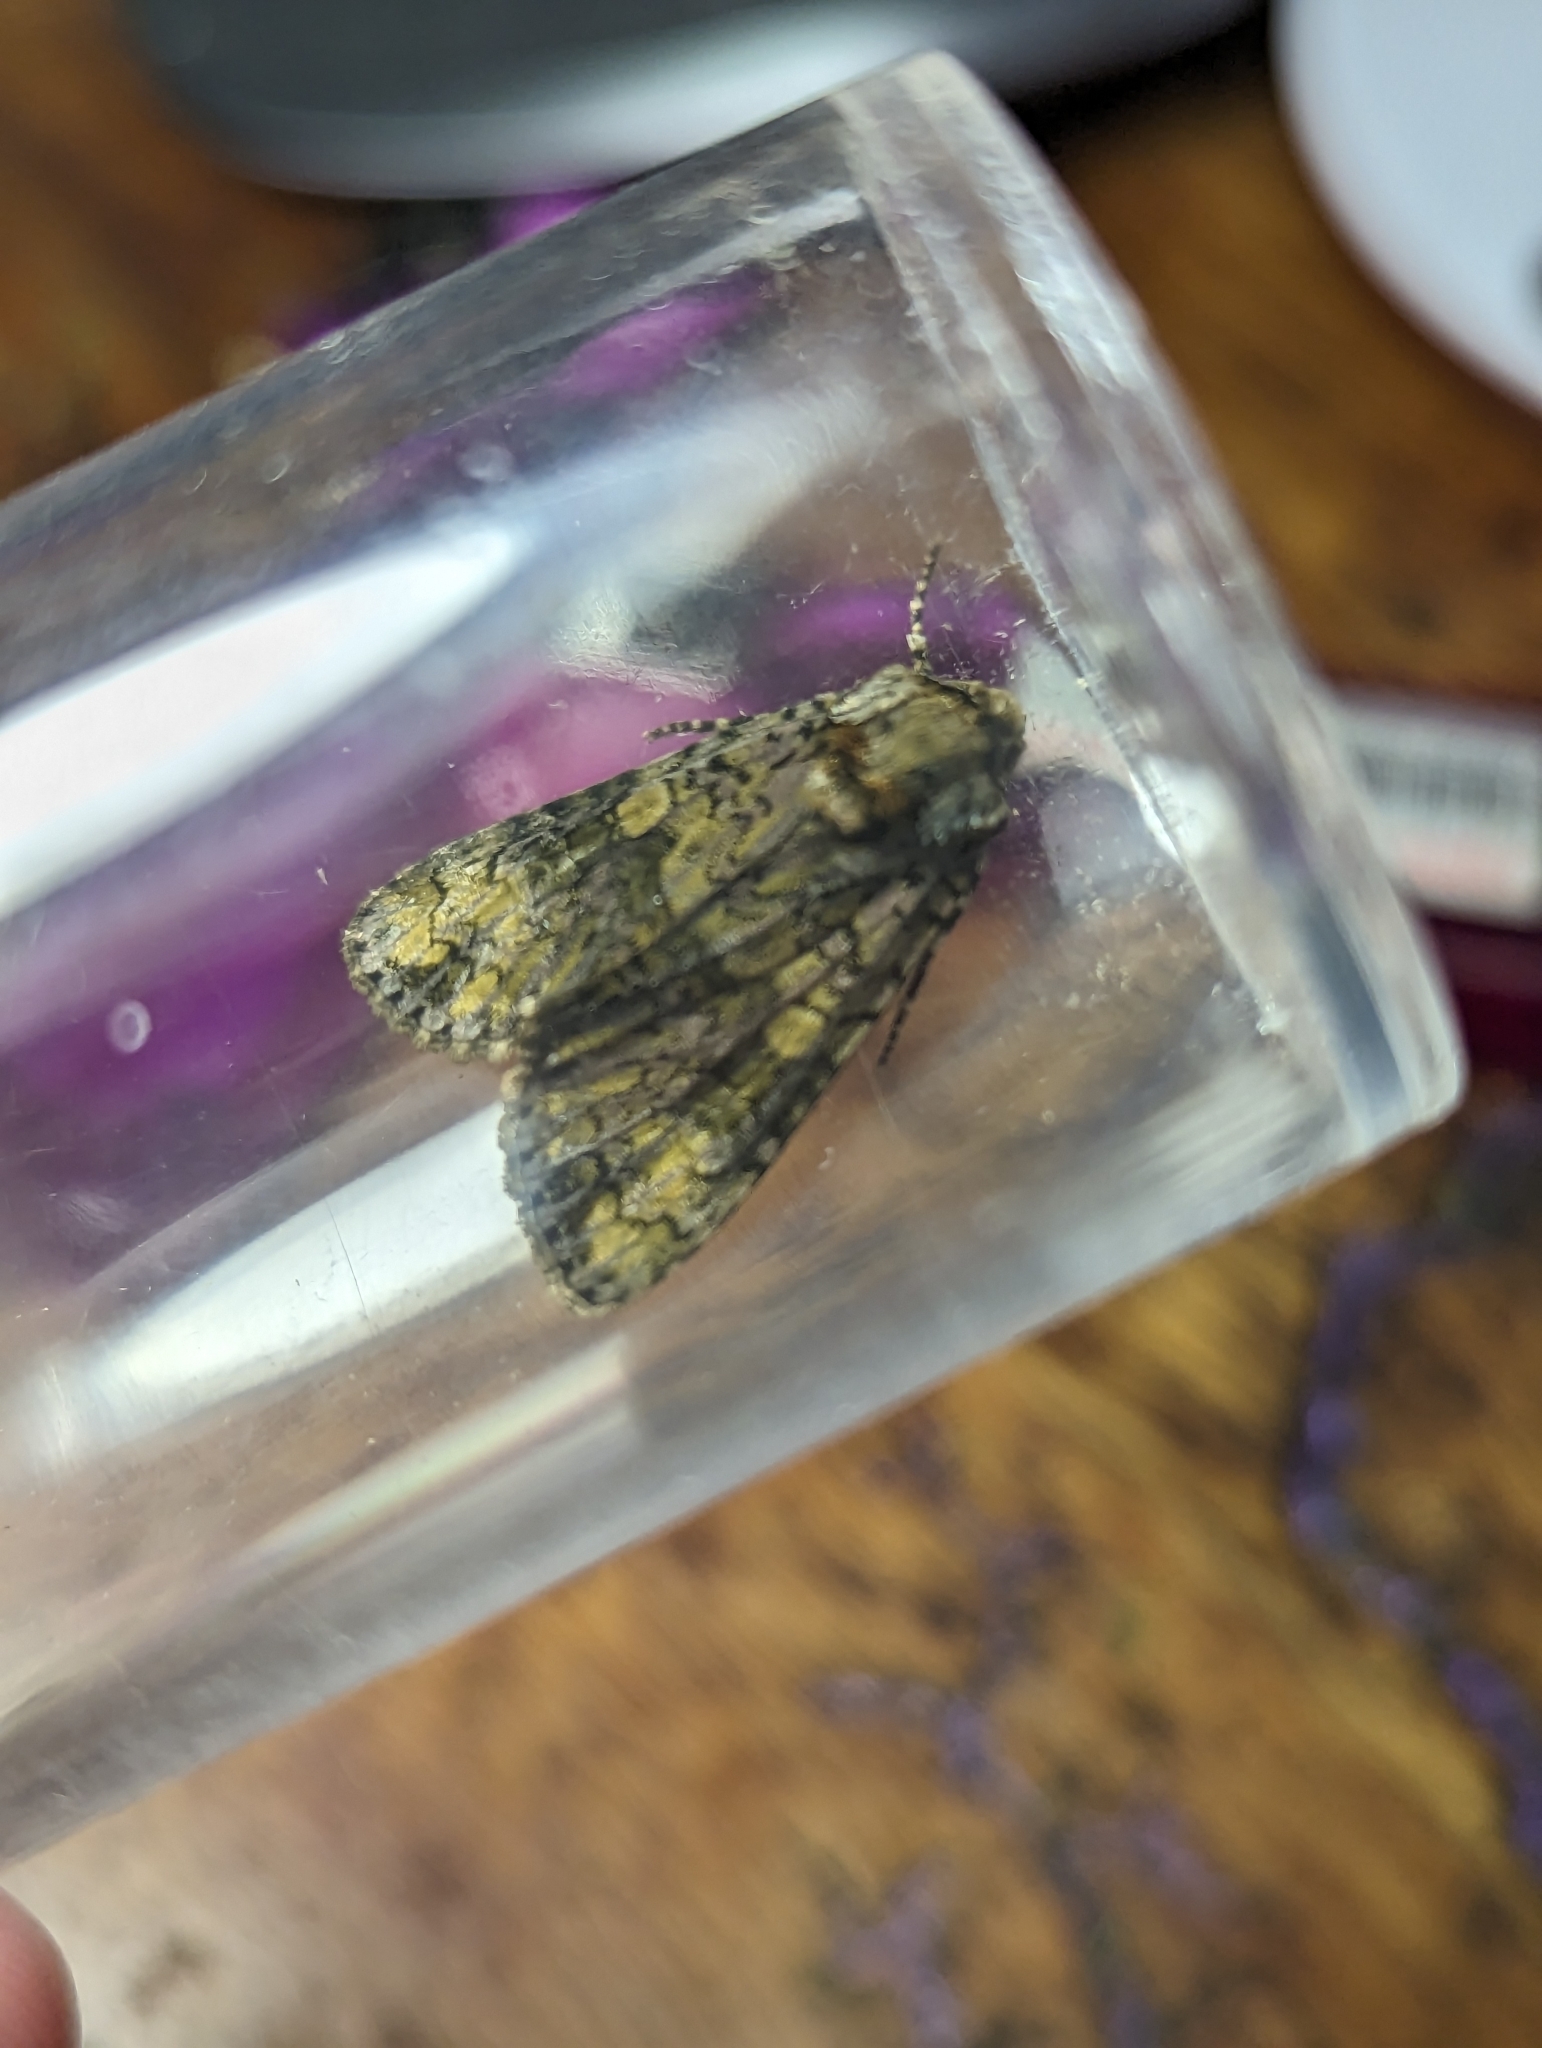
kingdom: Animalia
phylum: Arthropoda
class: Insecta
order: Lepidoptera
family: Noctuidae
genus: Craniophora
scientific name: Craniophora ligustri
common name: Coronet
